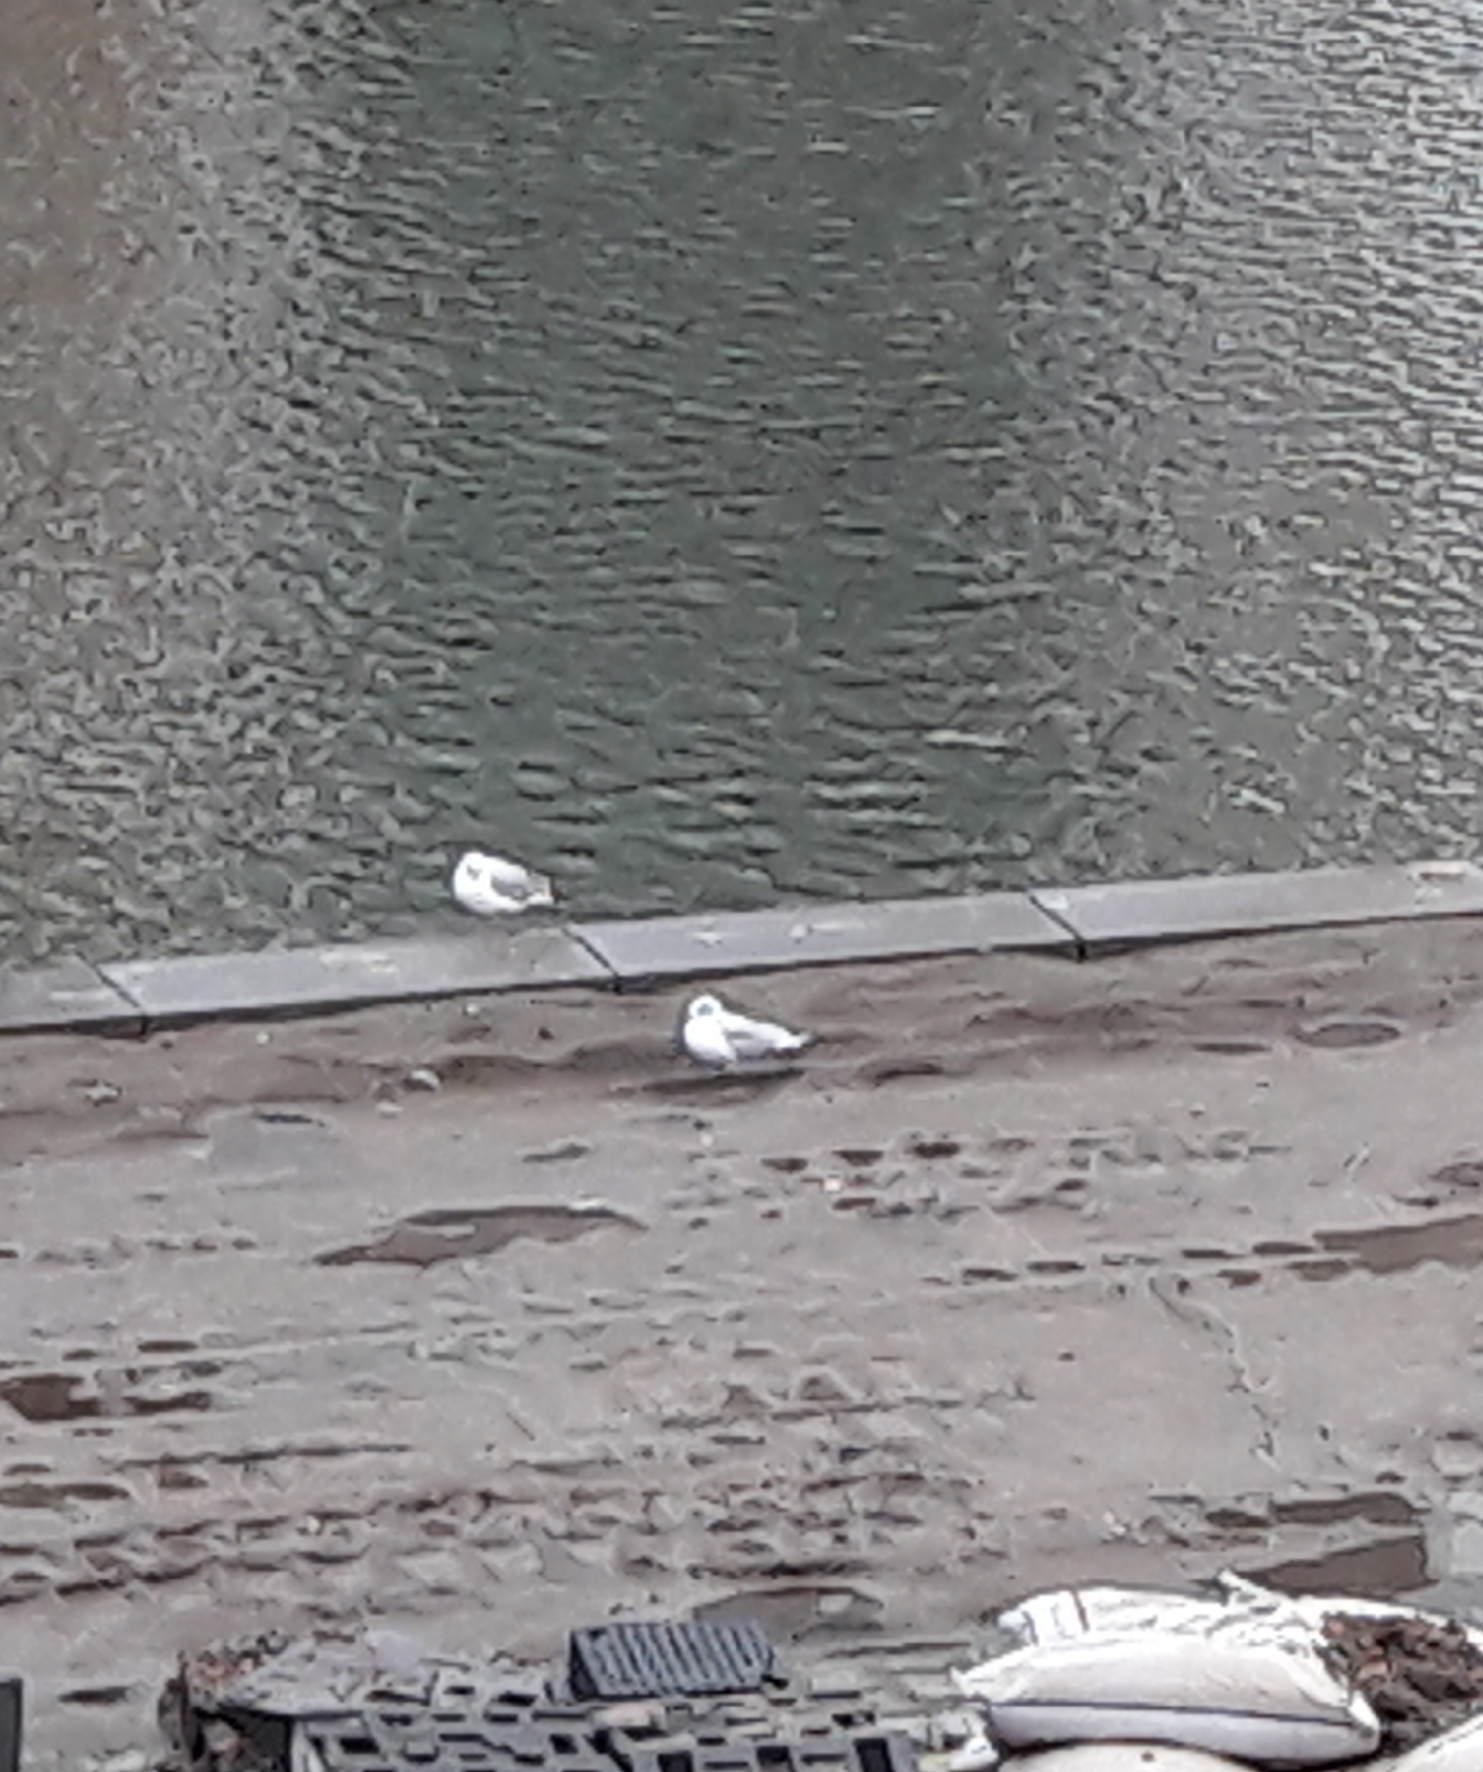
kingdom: Animalia
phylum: Chordata
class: Aves
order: Charadriiformes
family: Laridae
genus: Chroicocephalus
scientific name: Chroicocephalus ridibundus
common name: Black-headed gull
